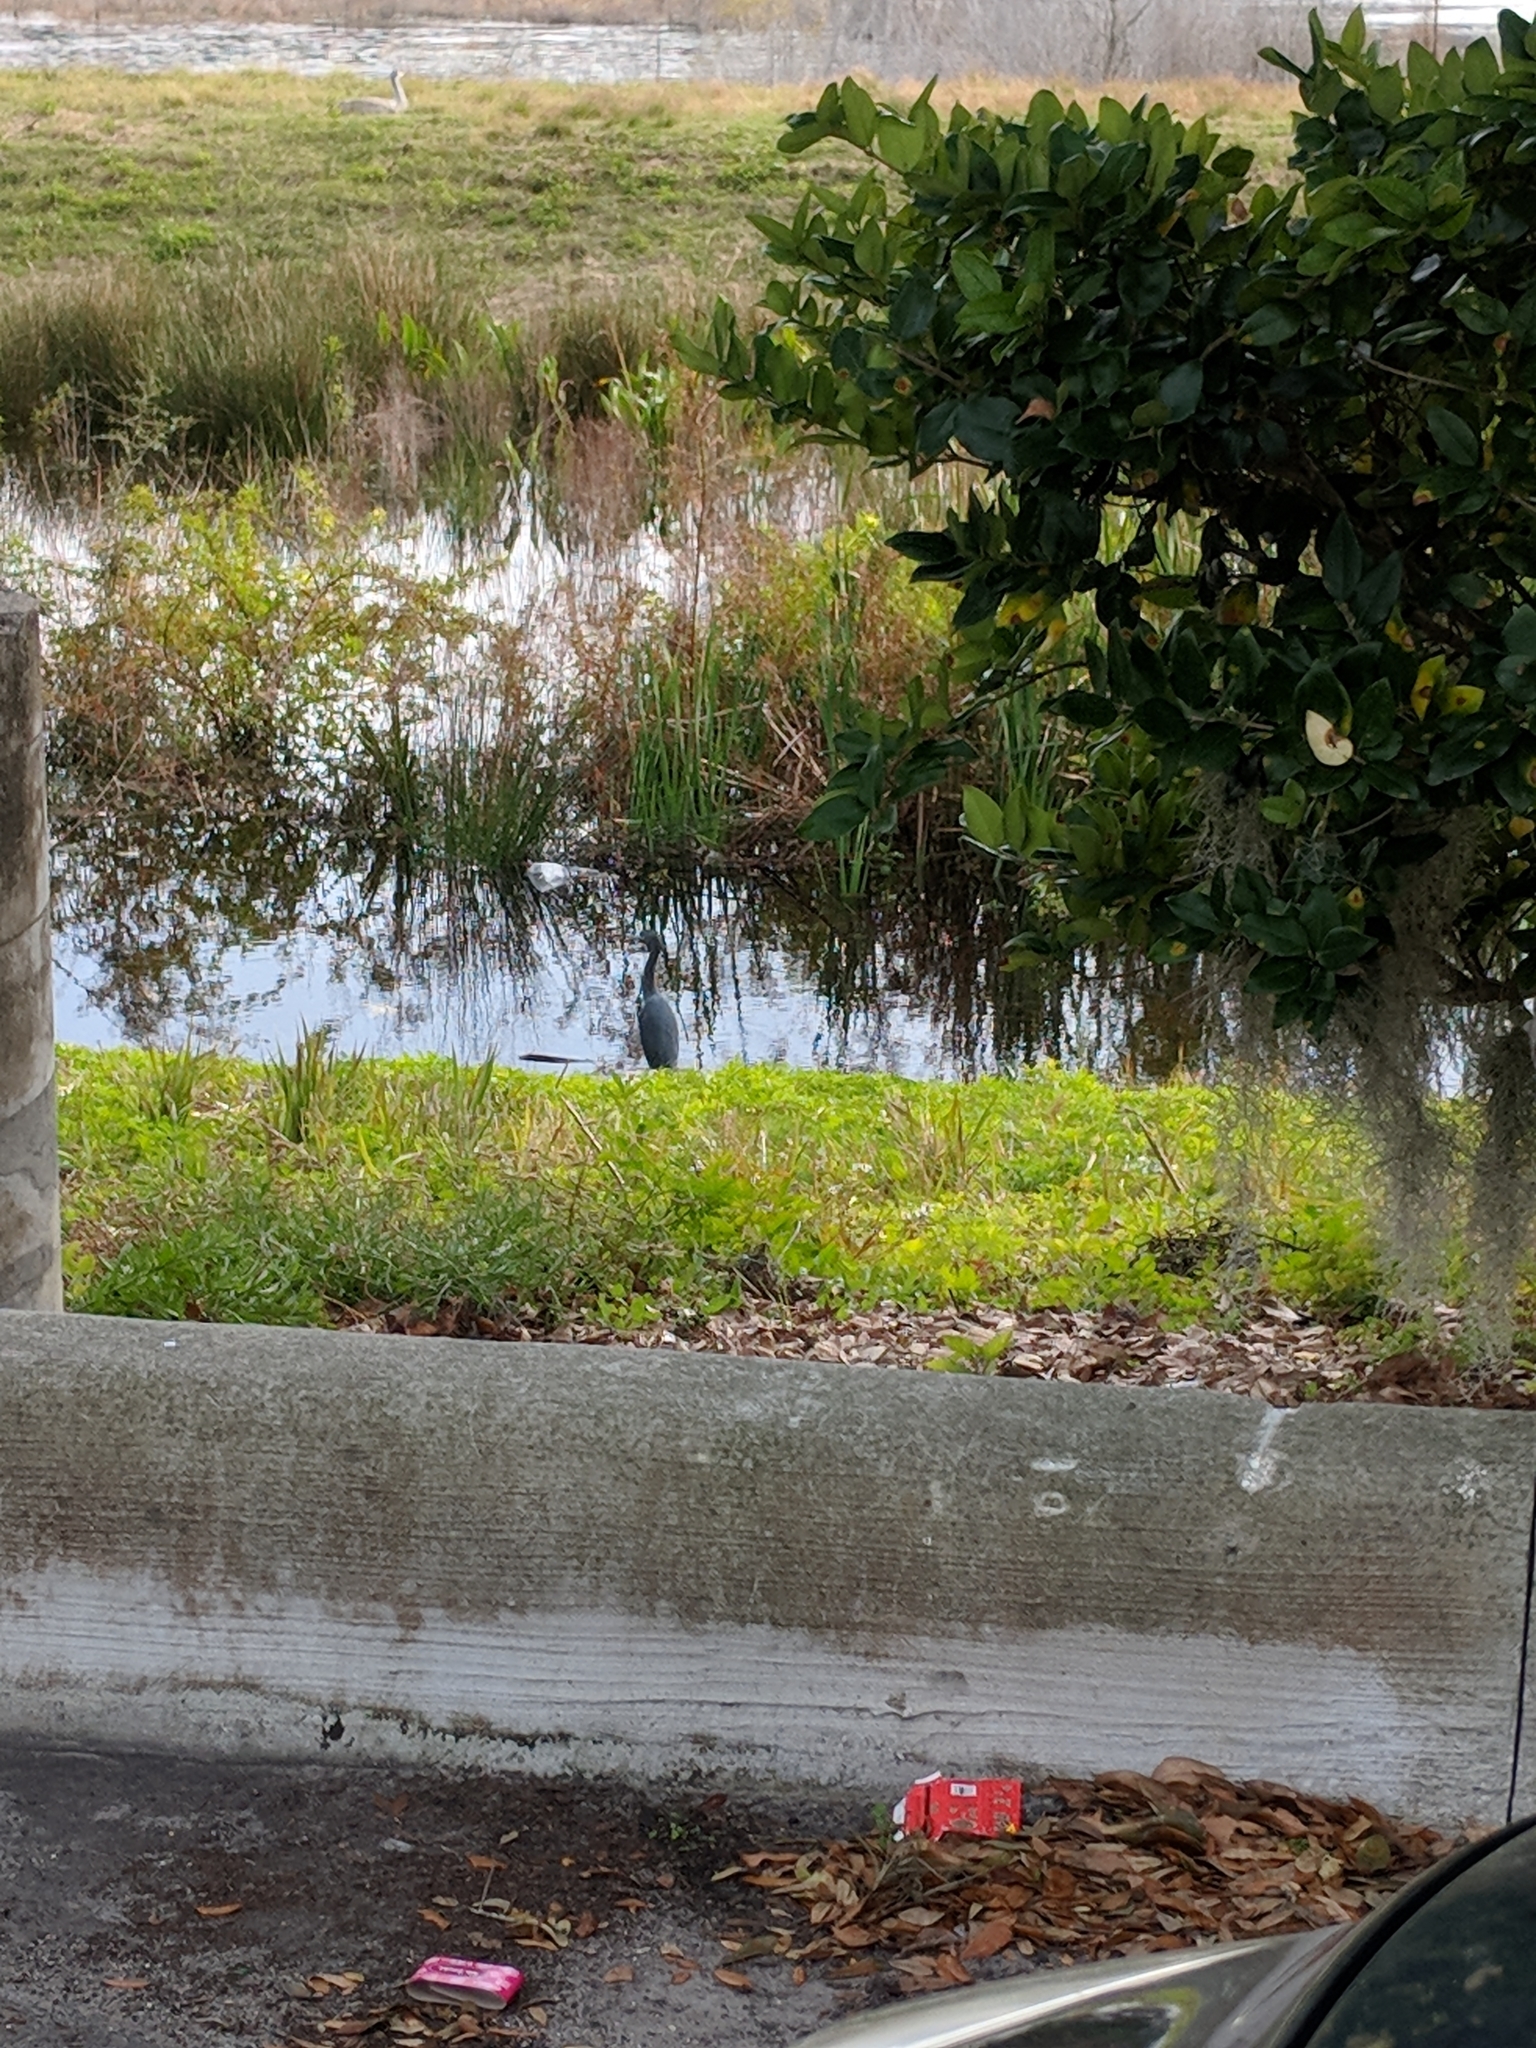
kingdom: Animalia
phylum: Chordata
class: Aves
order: Pelecaniformes
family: Ardeidae
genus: Egretta
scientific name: Egretta caerulea
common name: Little blue heron
